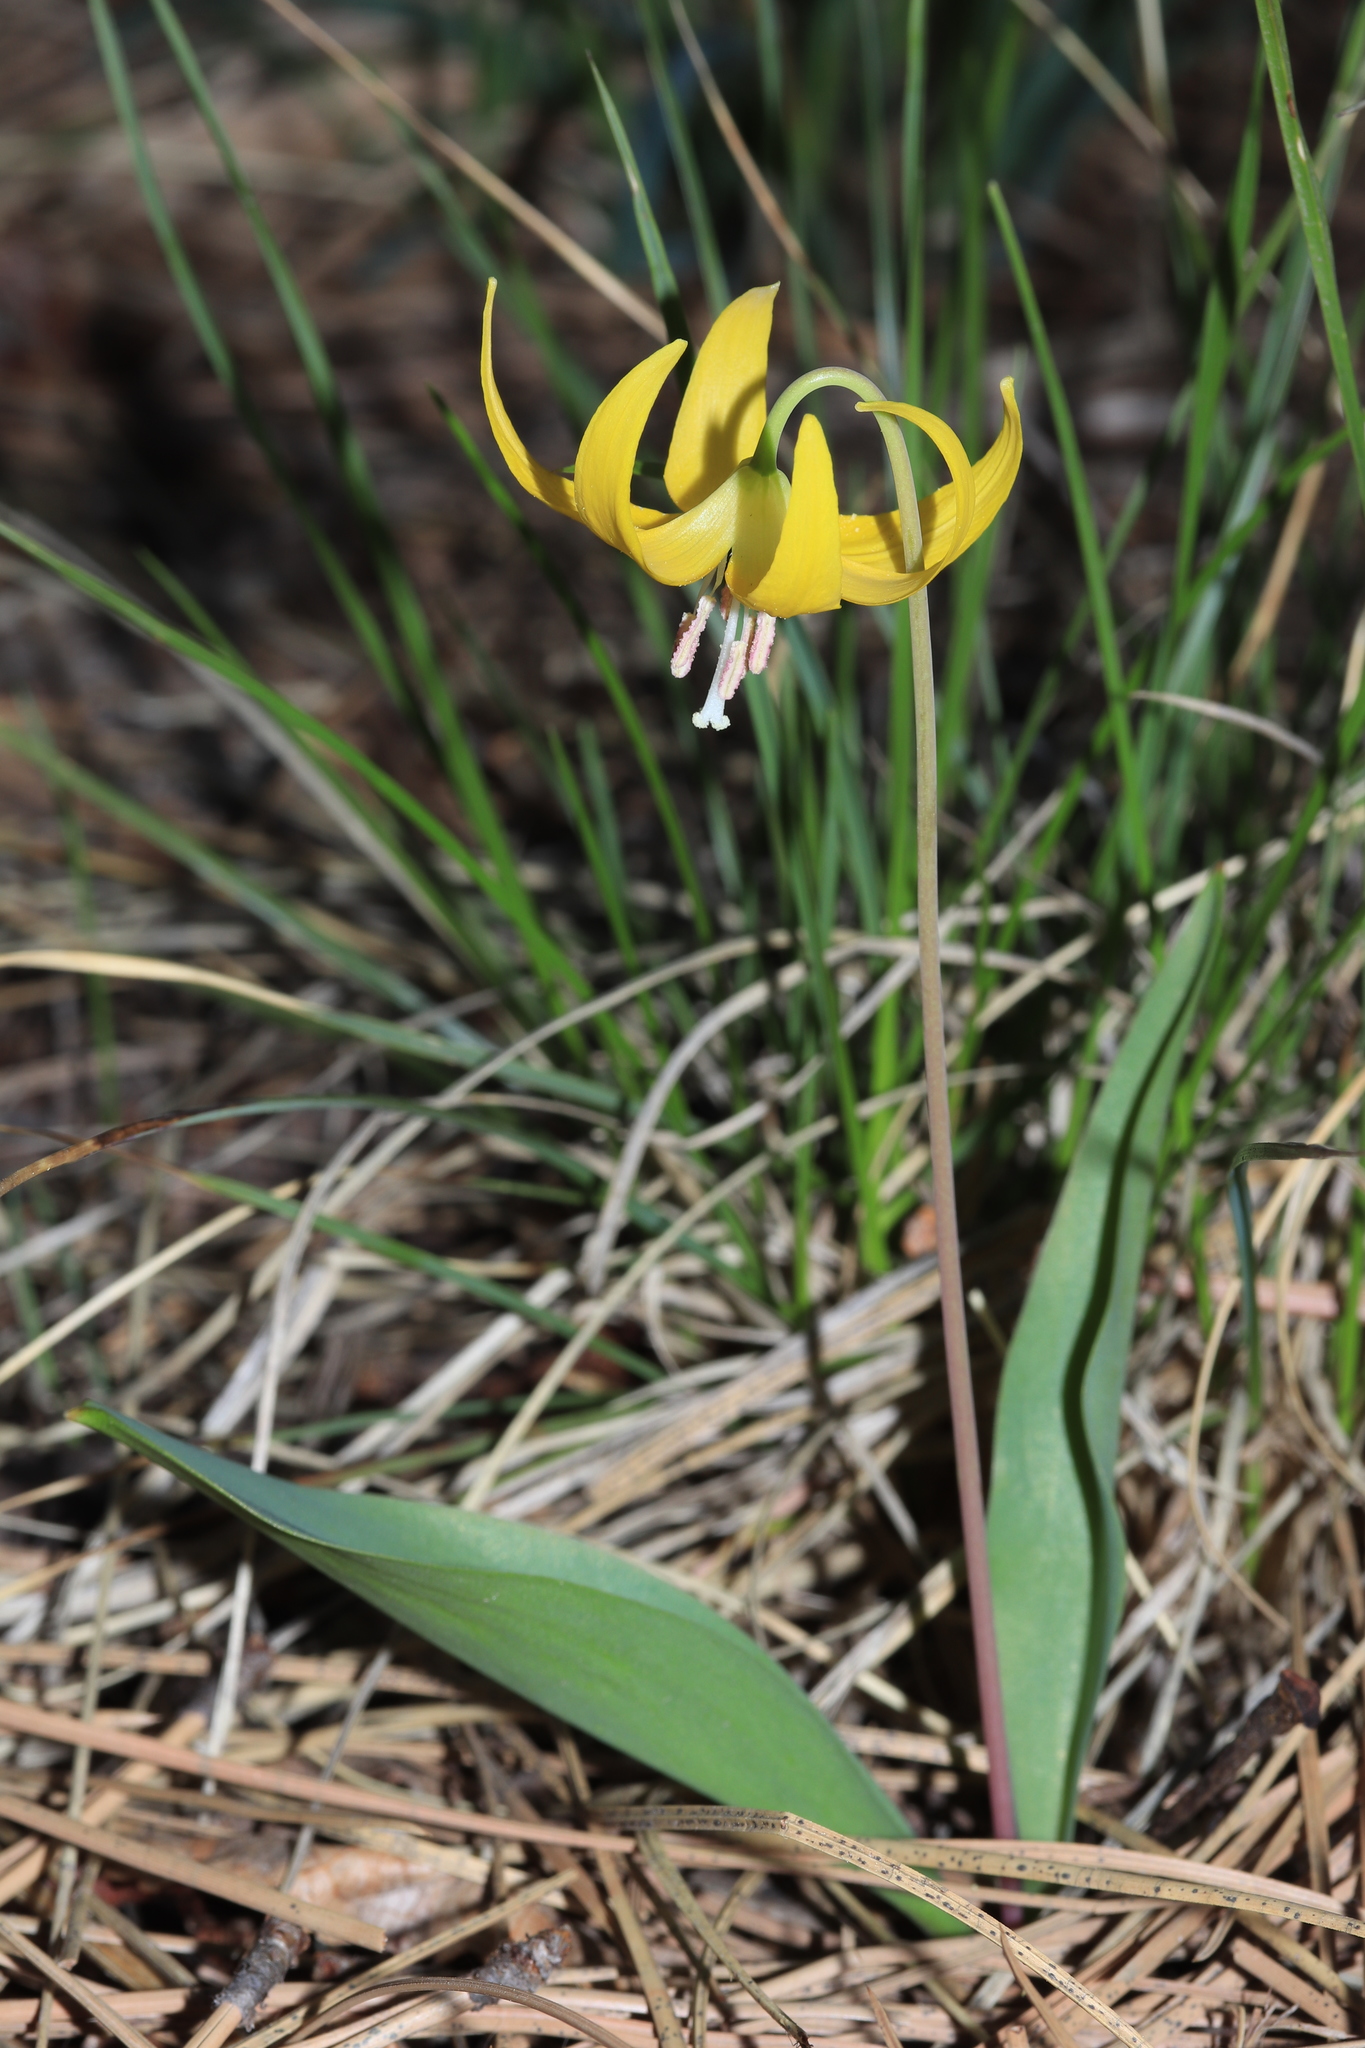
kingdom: Plantae
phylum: Tracheophyta
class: Liliopsida
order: Liliales
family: Liliaceae
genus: Erythronium
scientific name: Erythronium grandiflorum
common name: Avalanche-lily
